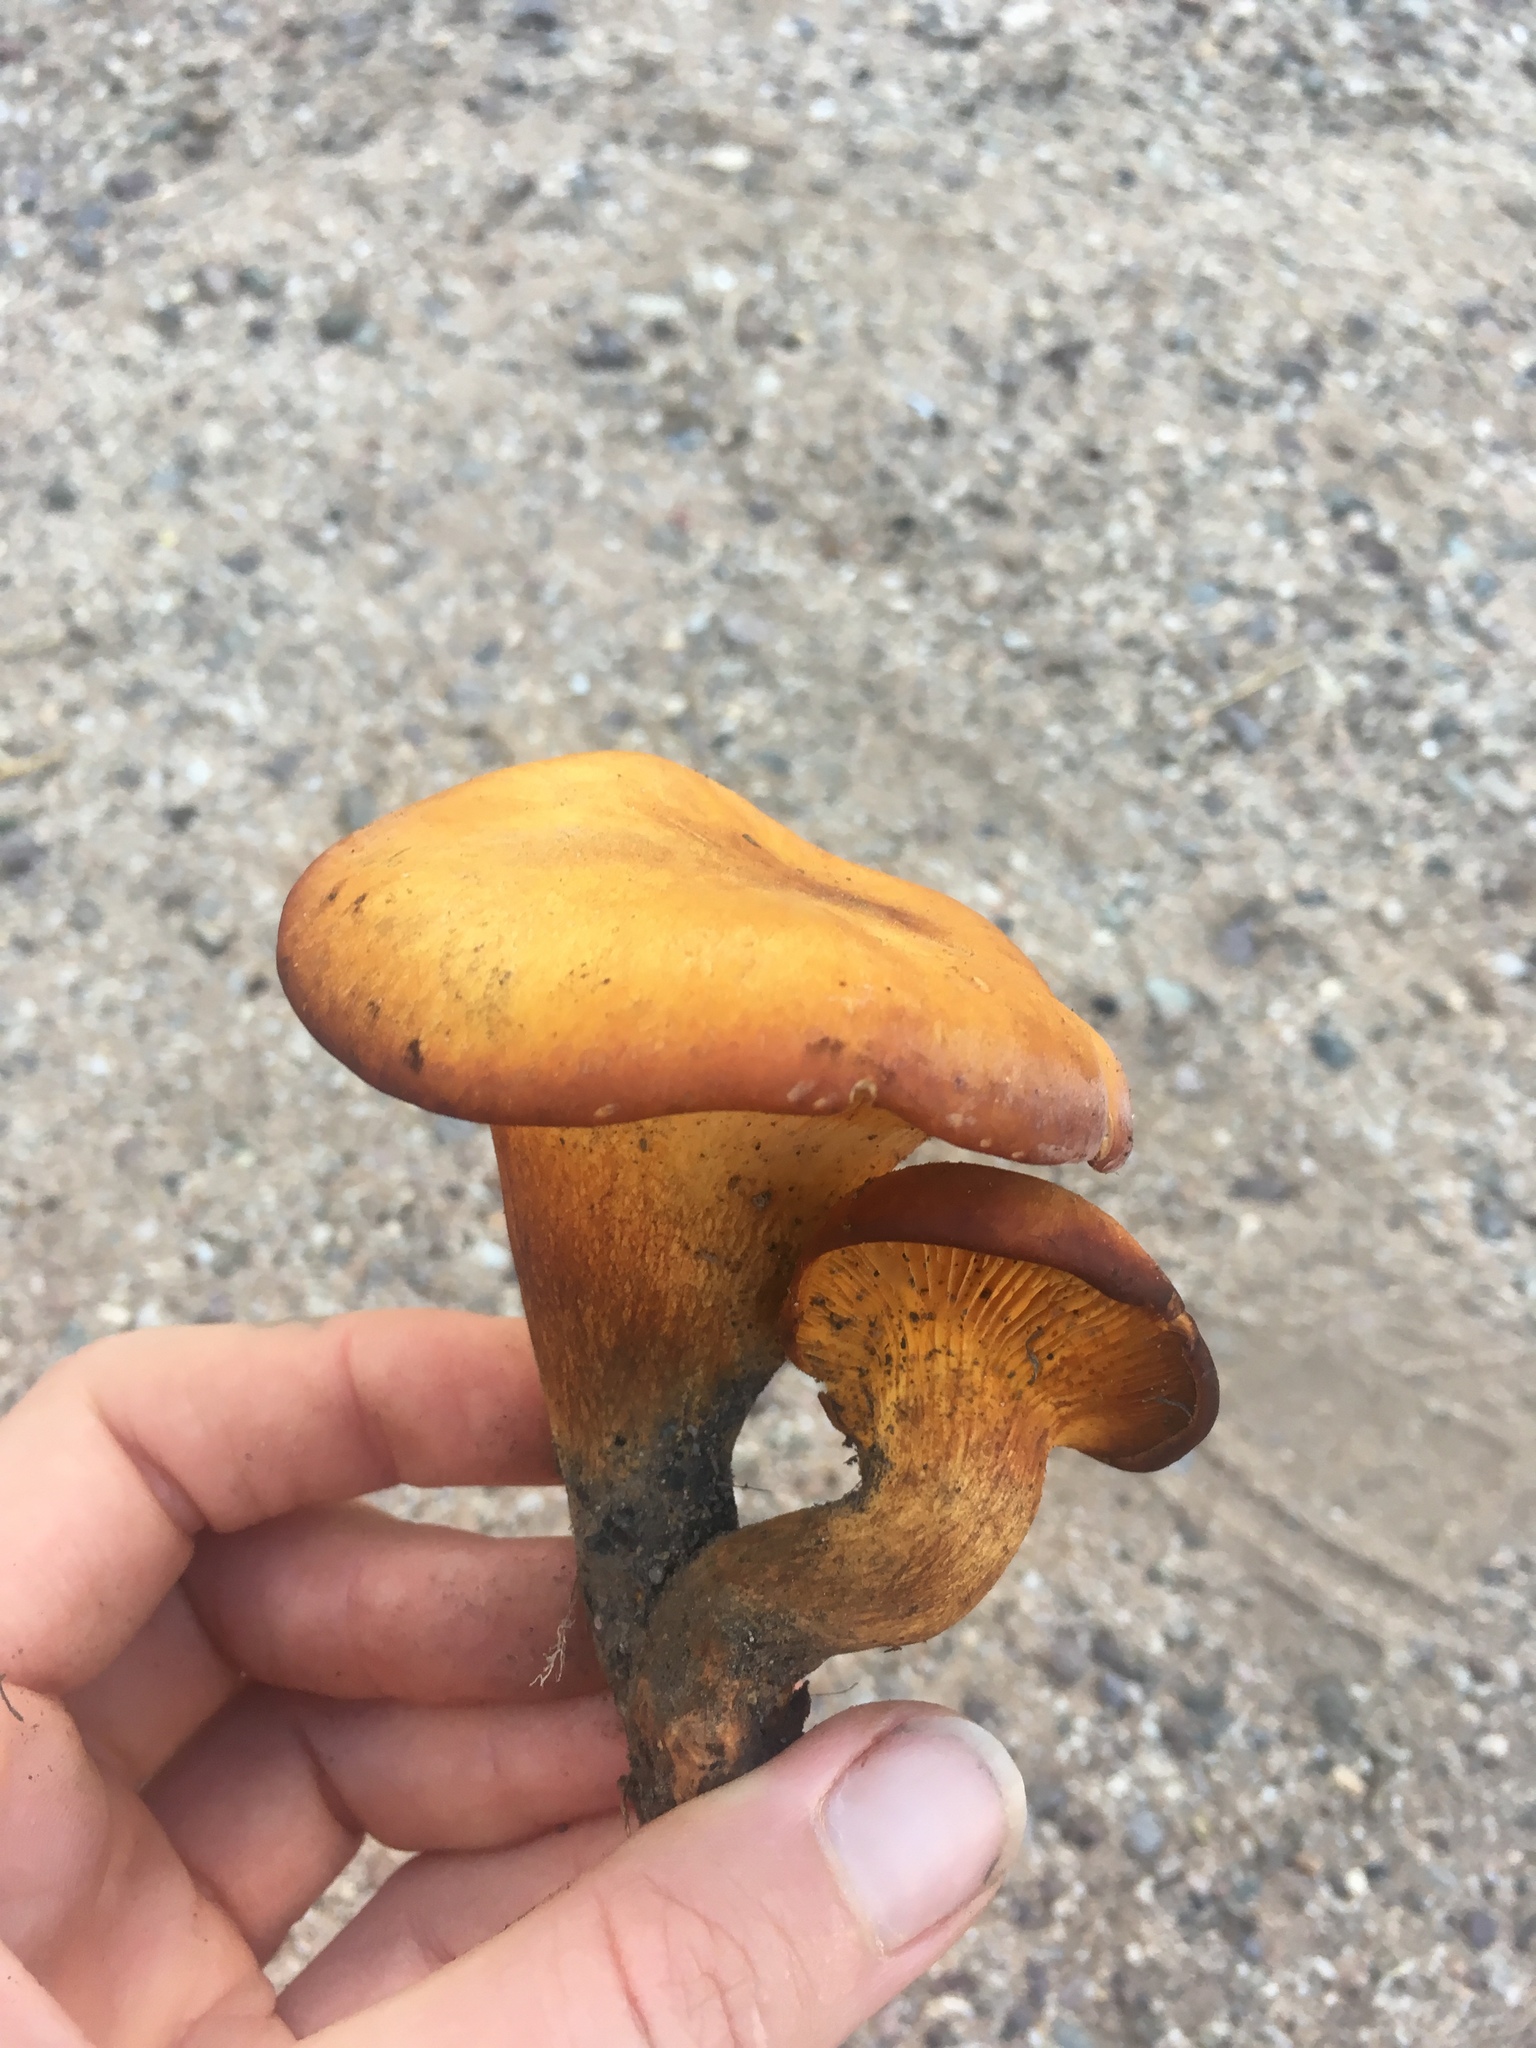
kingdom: Fungi
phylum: Basidiomycota
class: Agaricomycetes
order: Agaricales
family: Omphalotaceae
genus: Omphalotus
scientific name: Omphalotus subilludens
